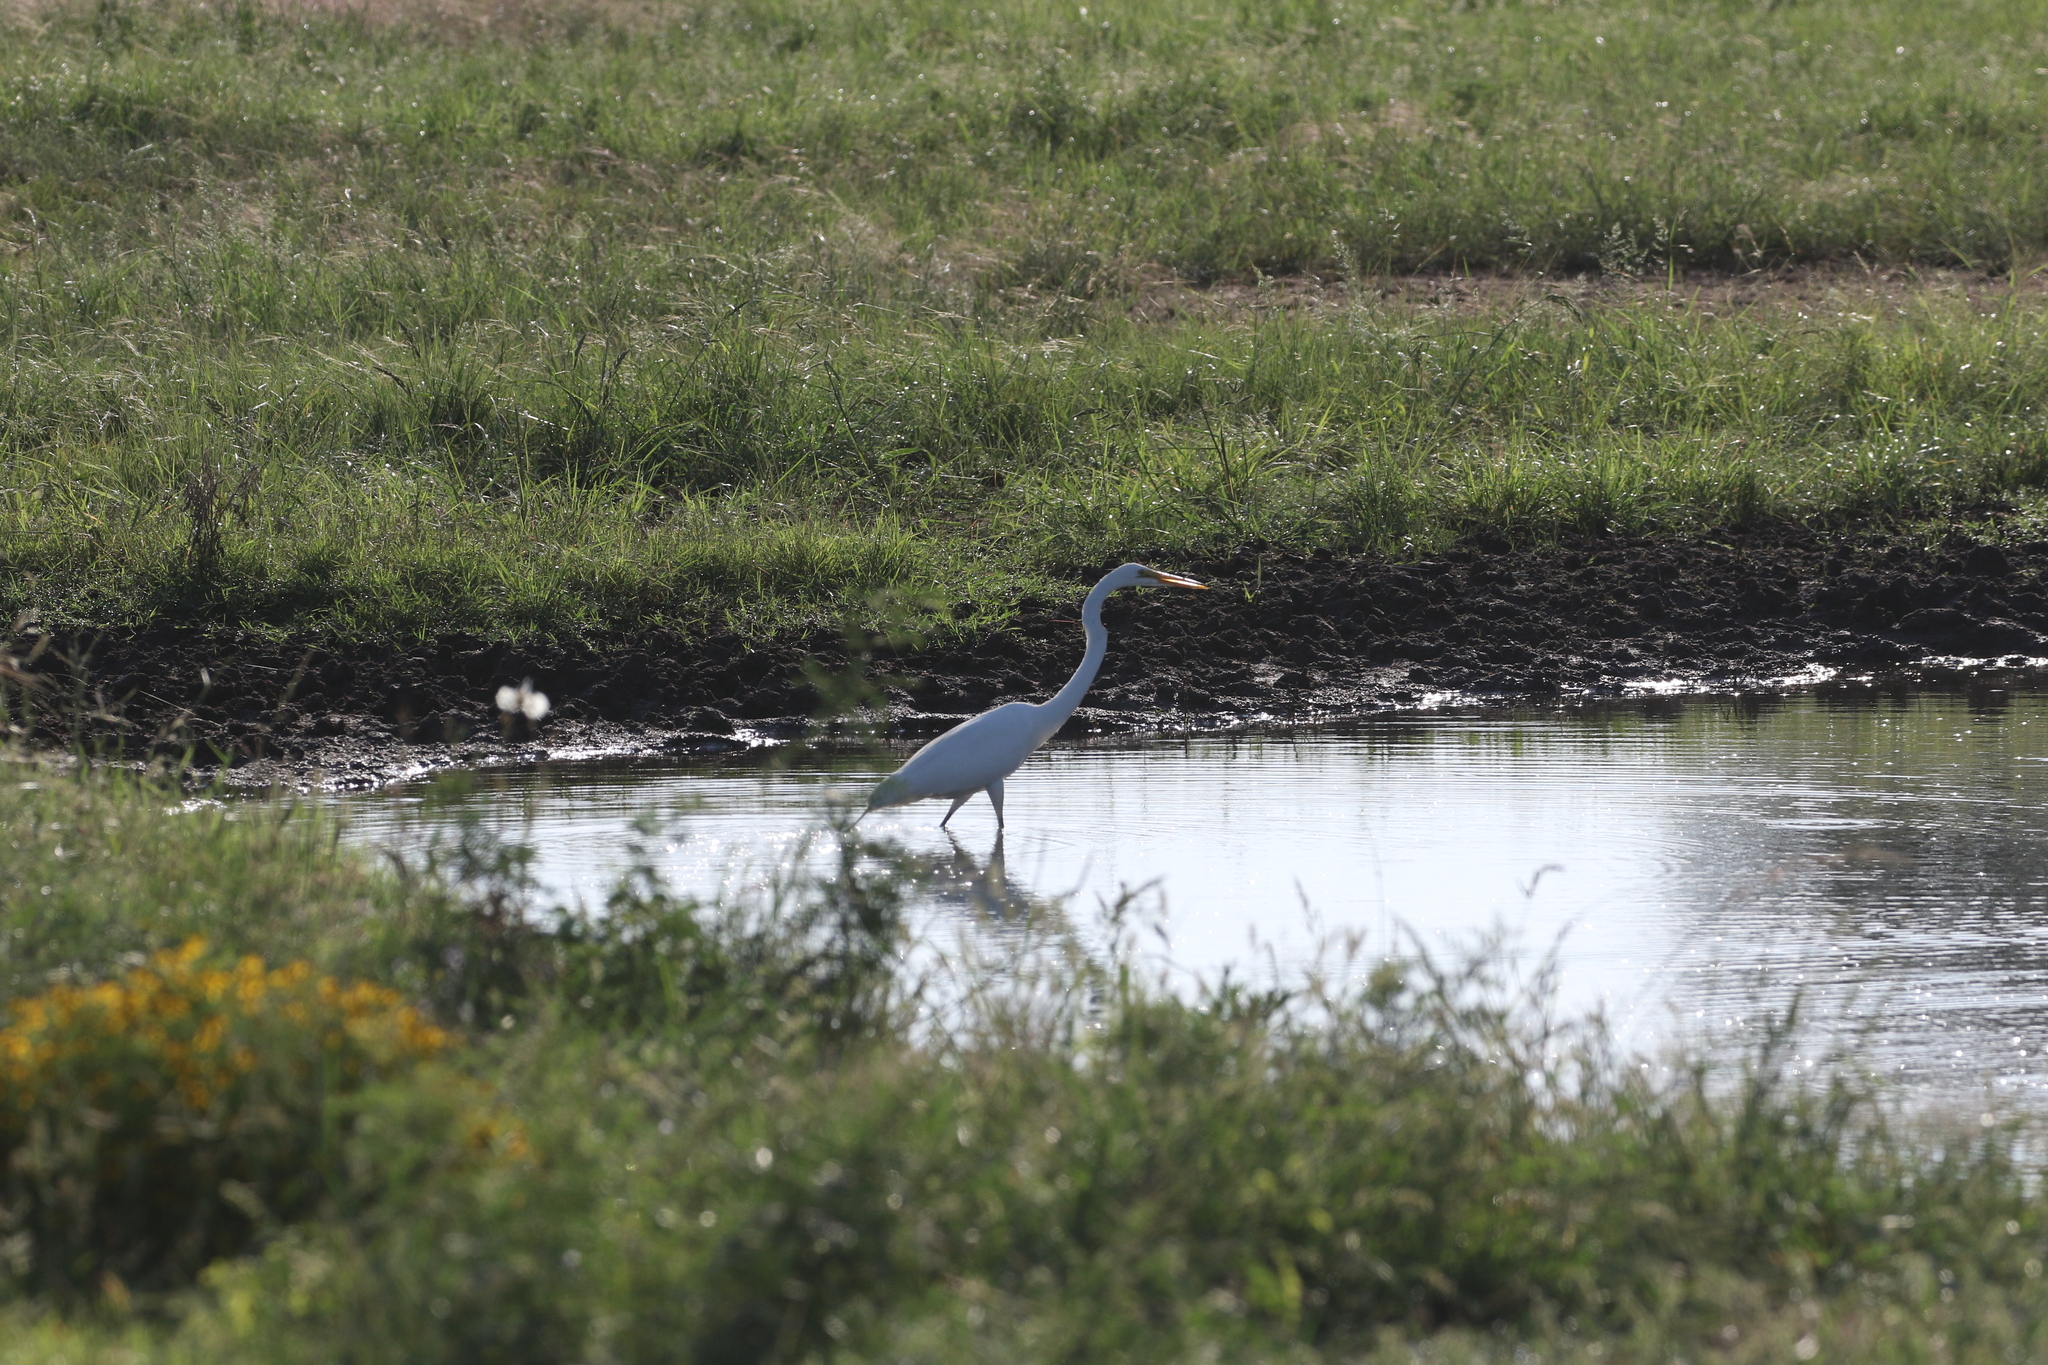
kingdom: Animalia
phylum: Chordata
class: Aves
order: Pelecaniformes
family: Ardeidae
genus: Ardea
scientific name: Ardea alba
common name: Great egret
